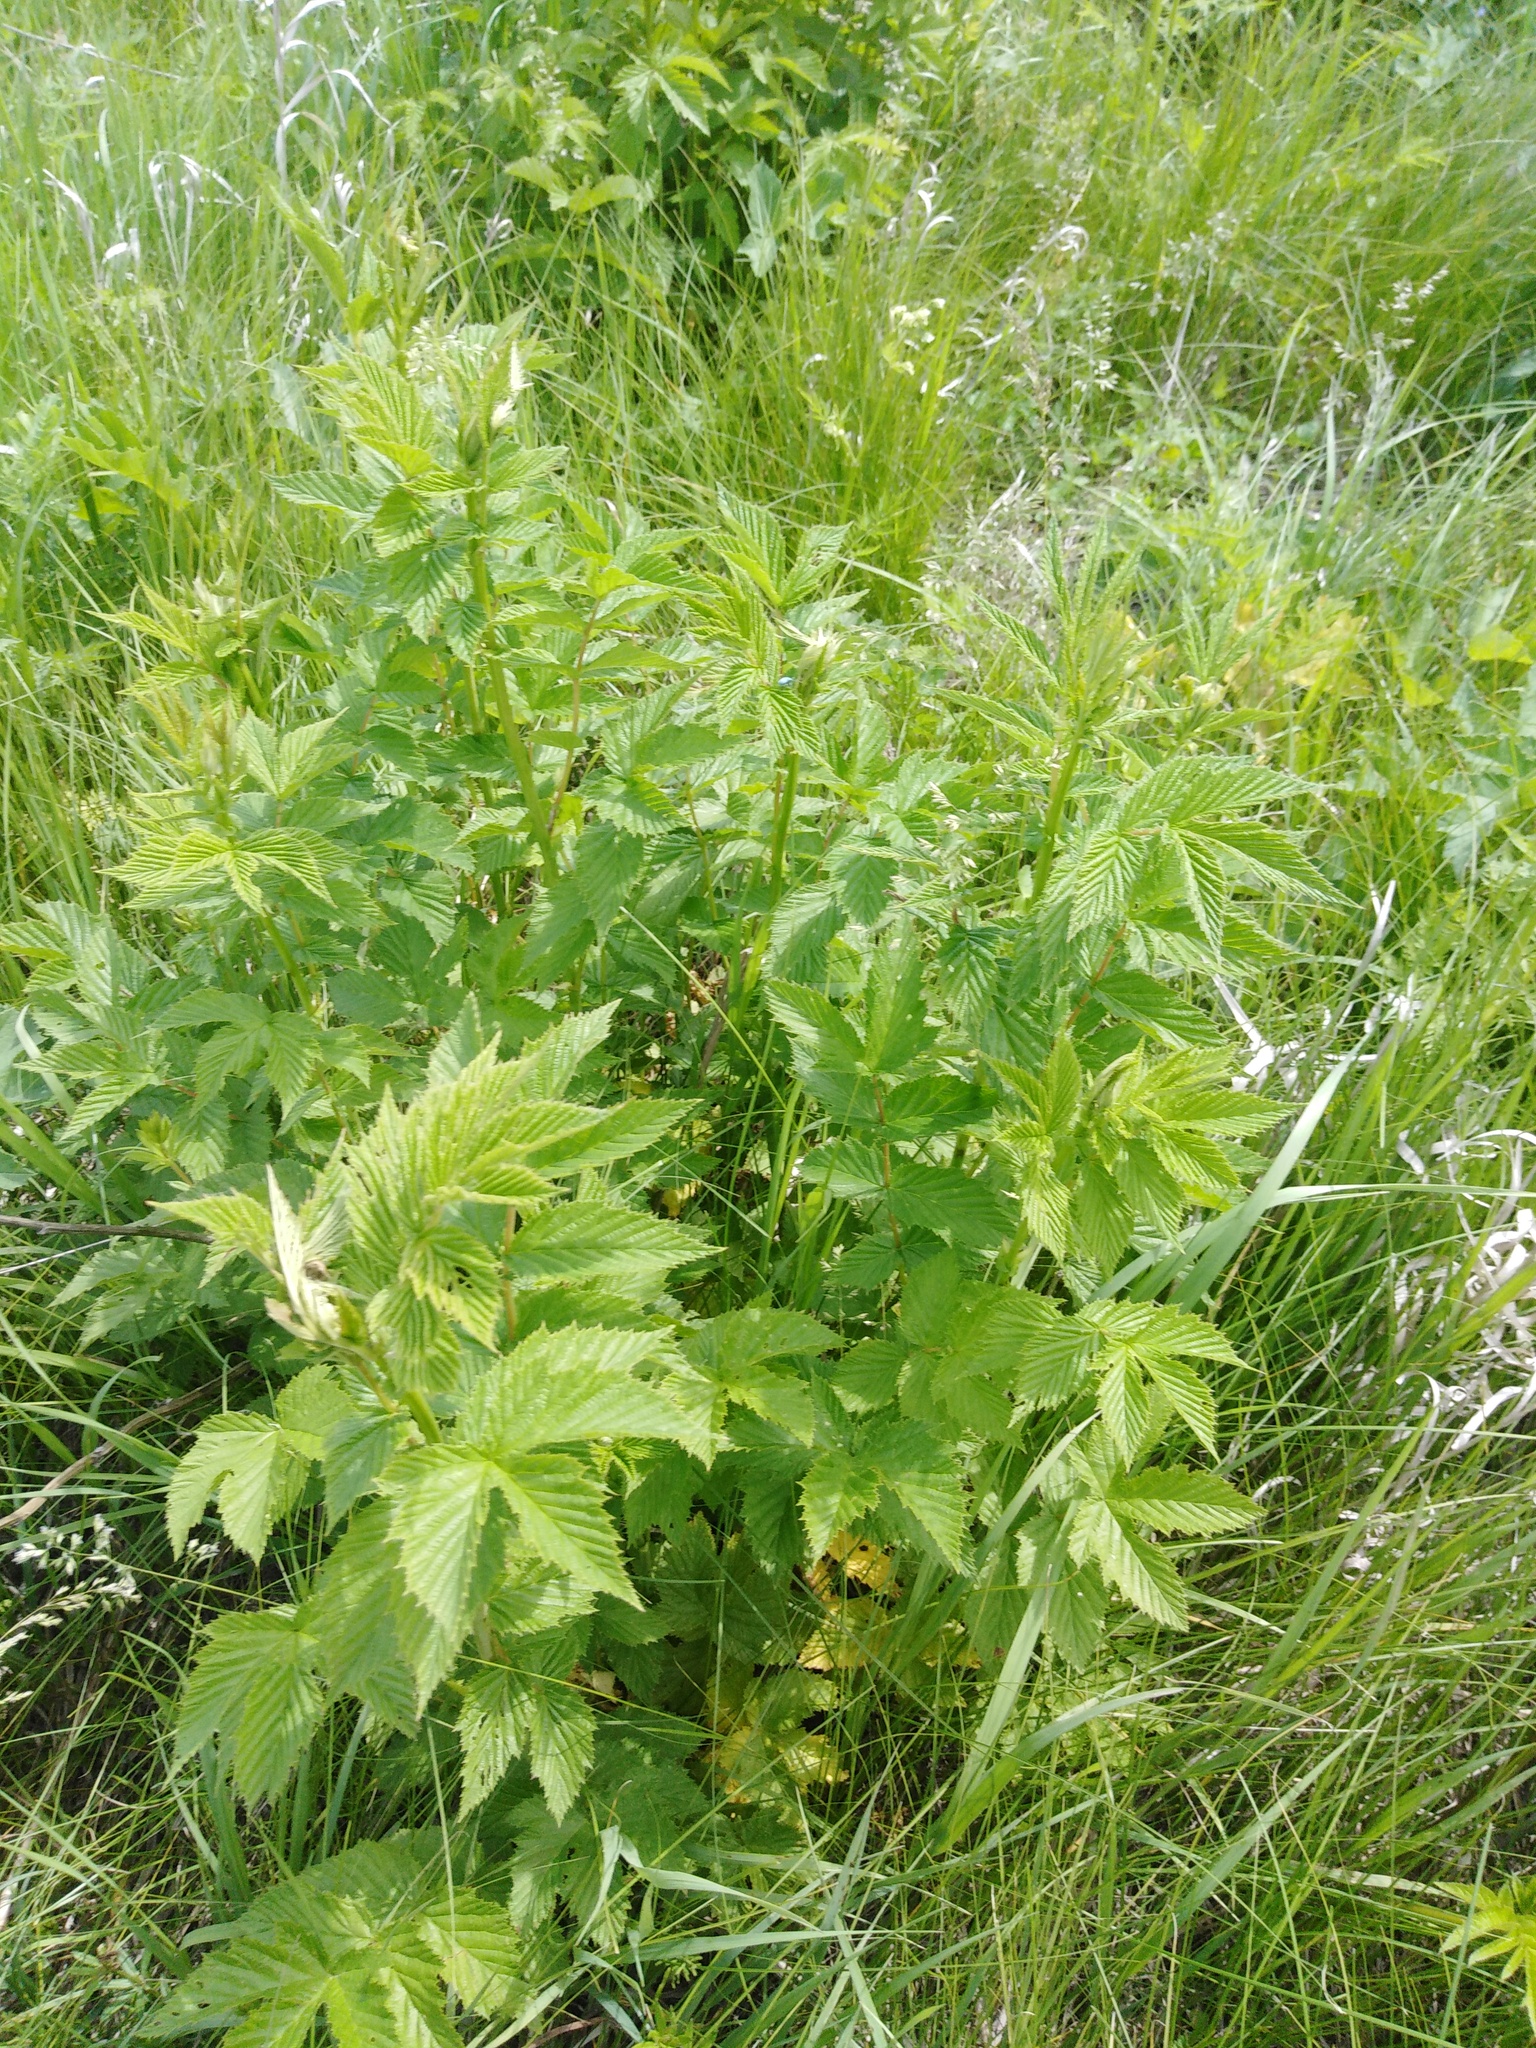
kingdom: Plantae
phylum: Tracheophyta
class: Magnoliopsida
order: Rosales
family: Rosaceae
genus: Filipendula
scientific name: Filipendula ulmaria
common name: Meadowsweet
